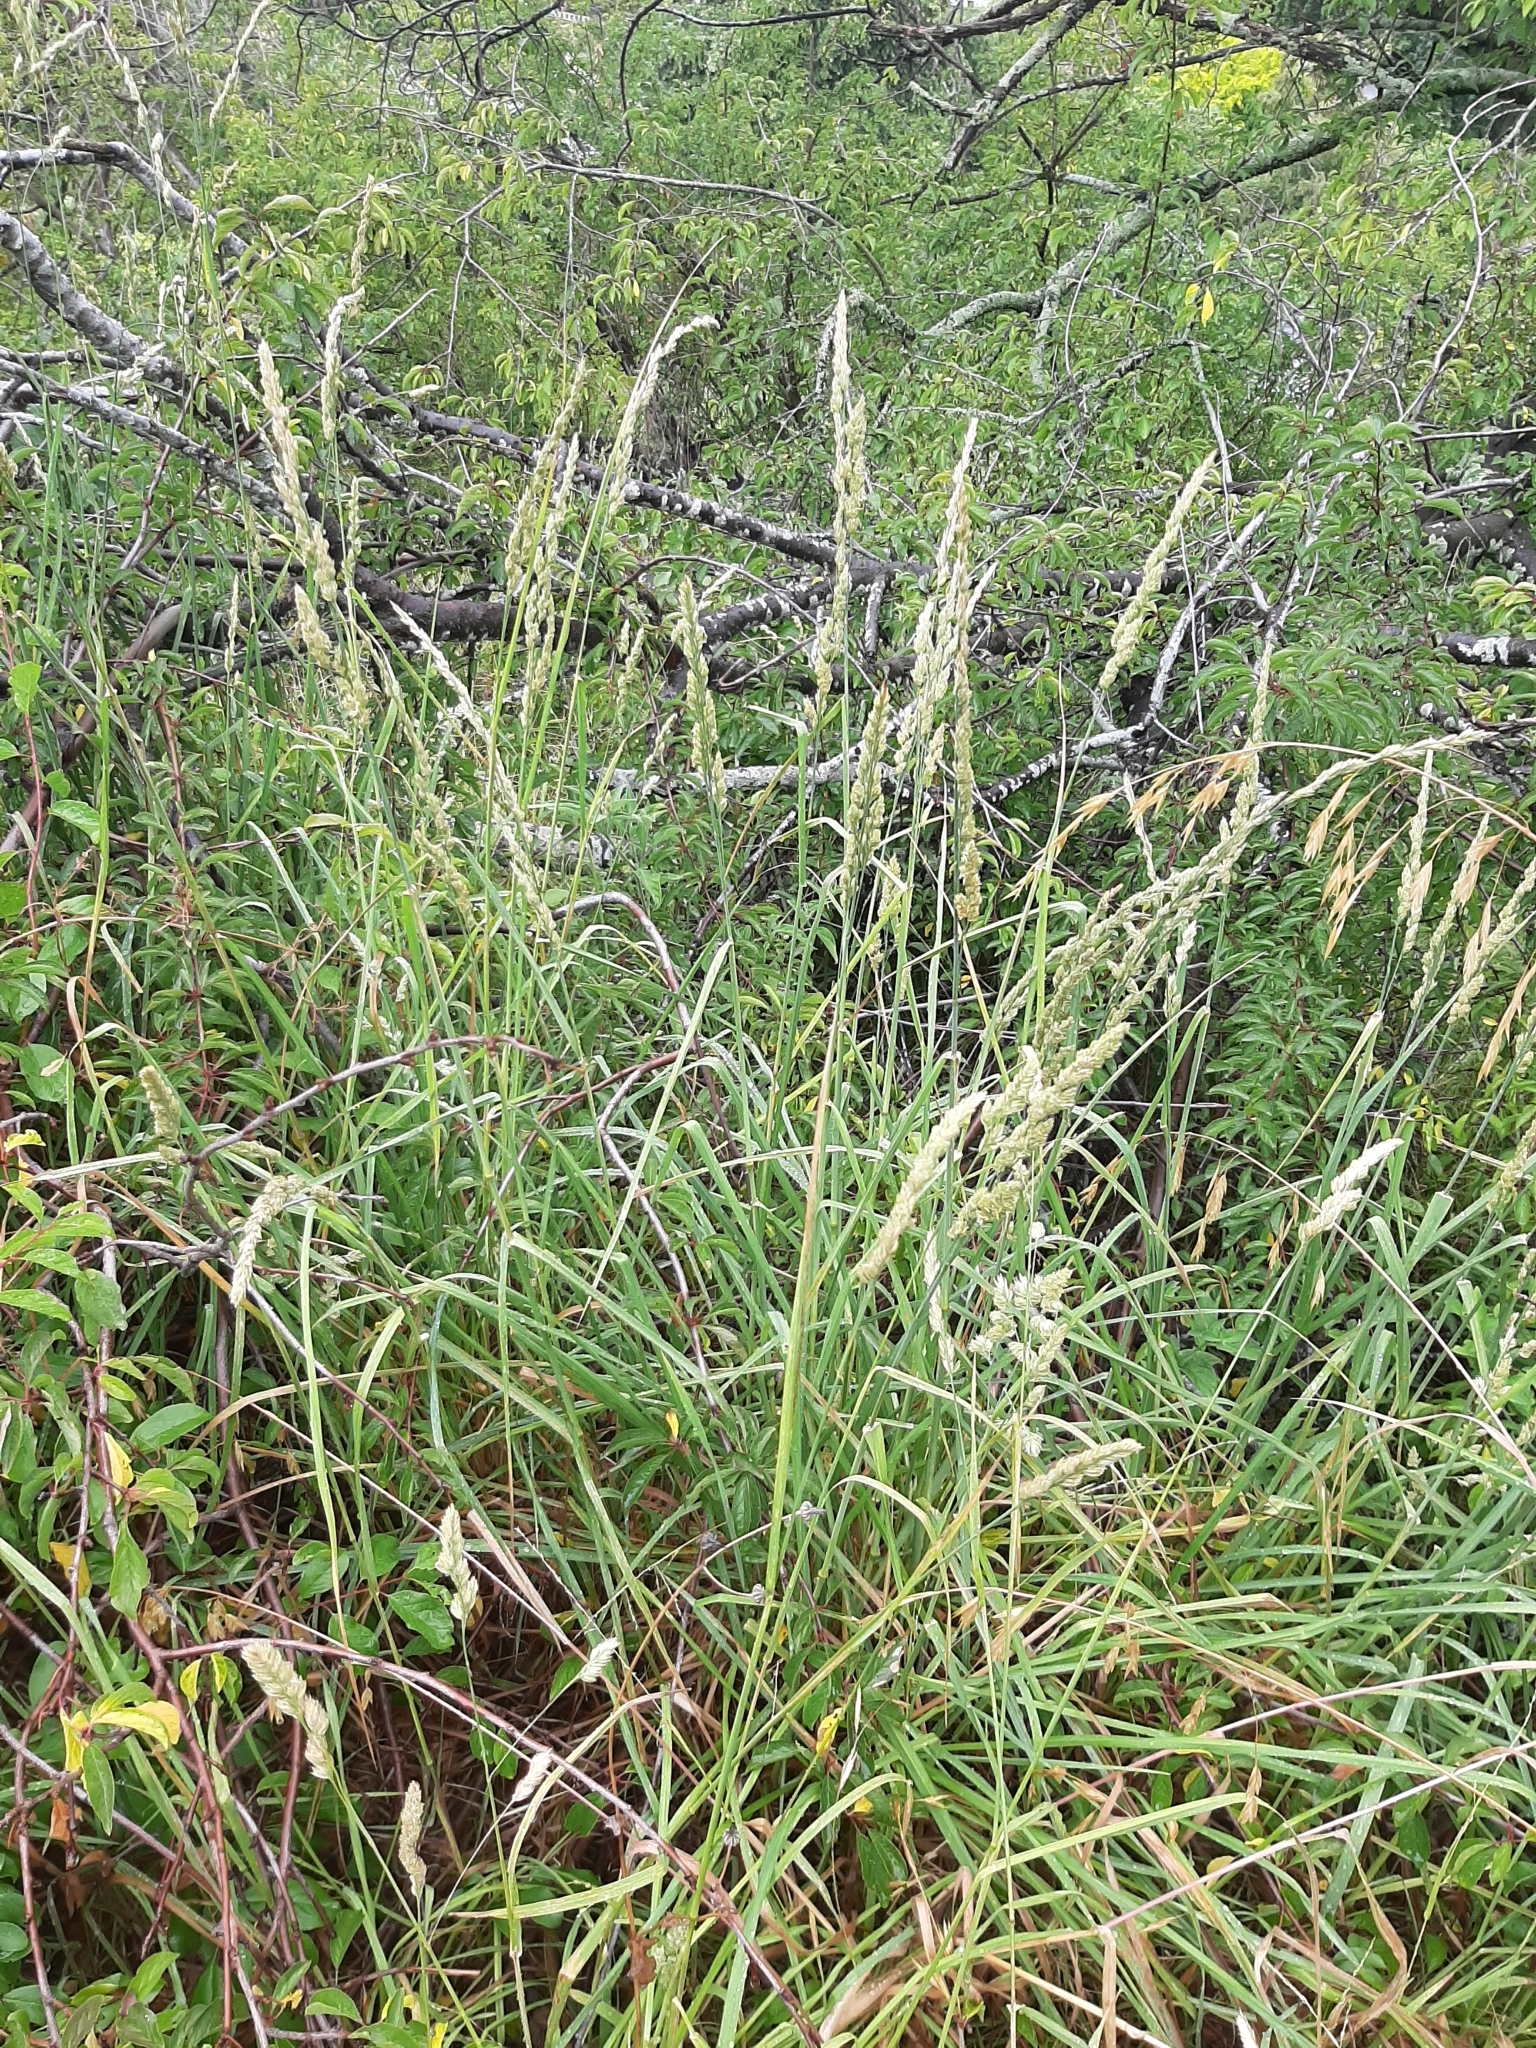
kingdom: Plantae
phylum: Tracheophyta
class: Liliopsida
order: Poales
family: Poaceae
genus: Dactylis
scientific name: Dactylis glomerata
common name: Orchardgrass
